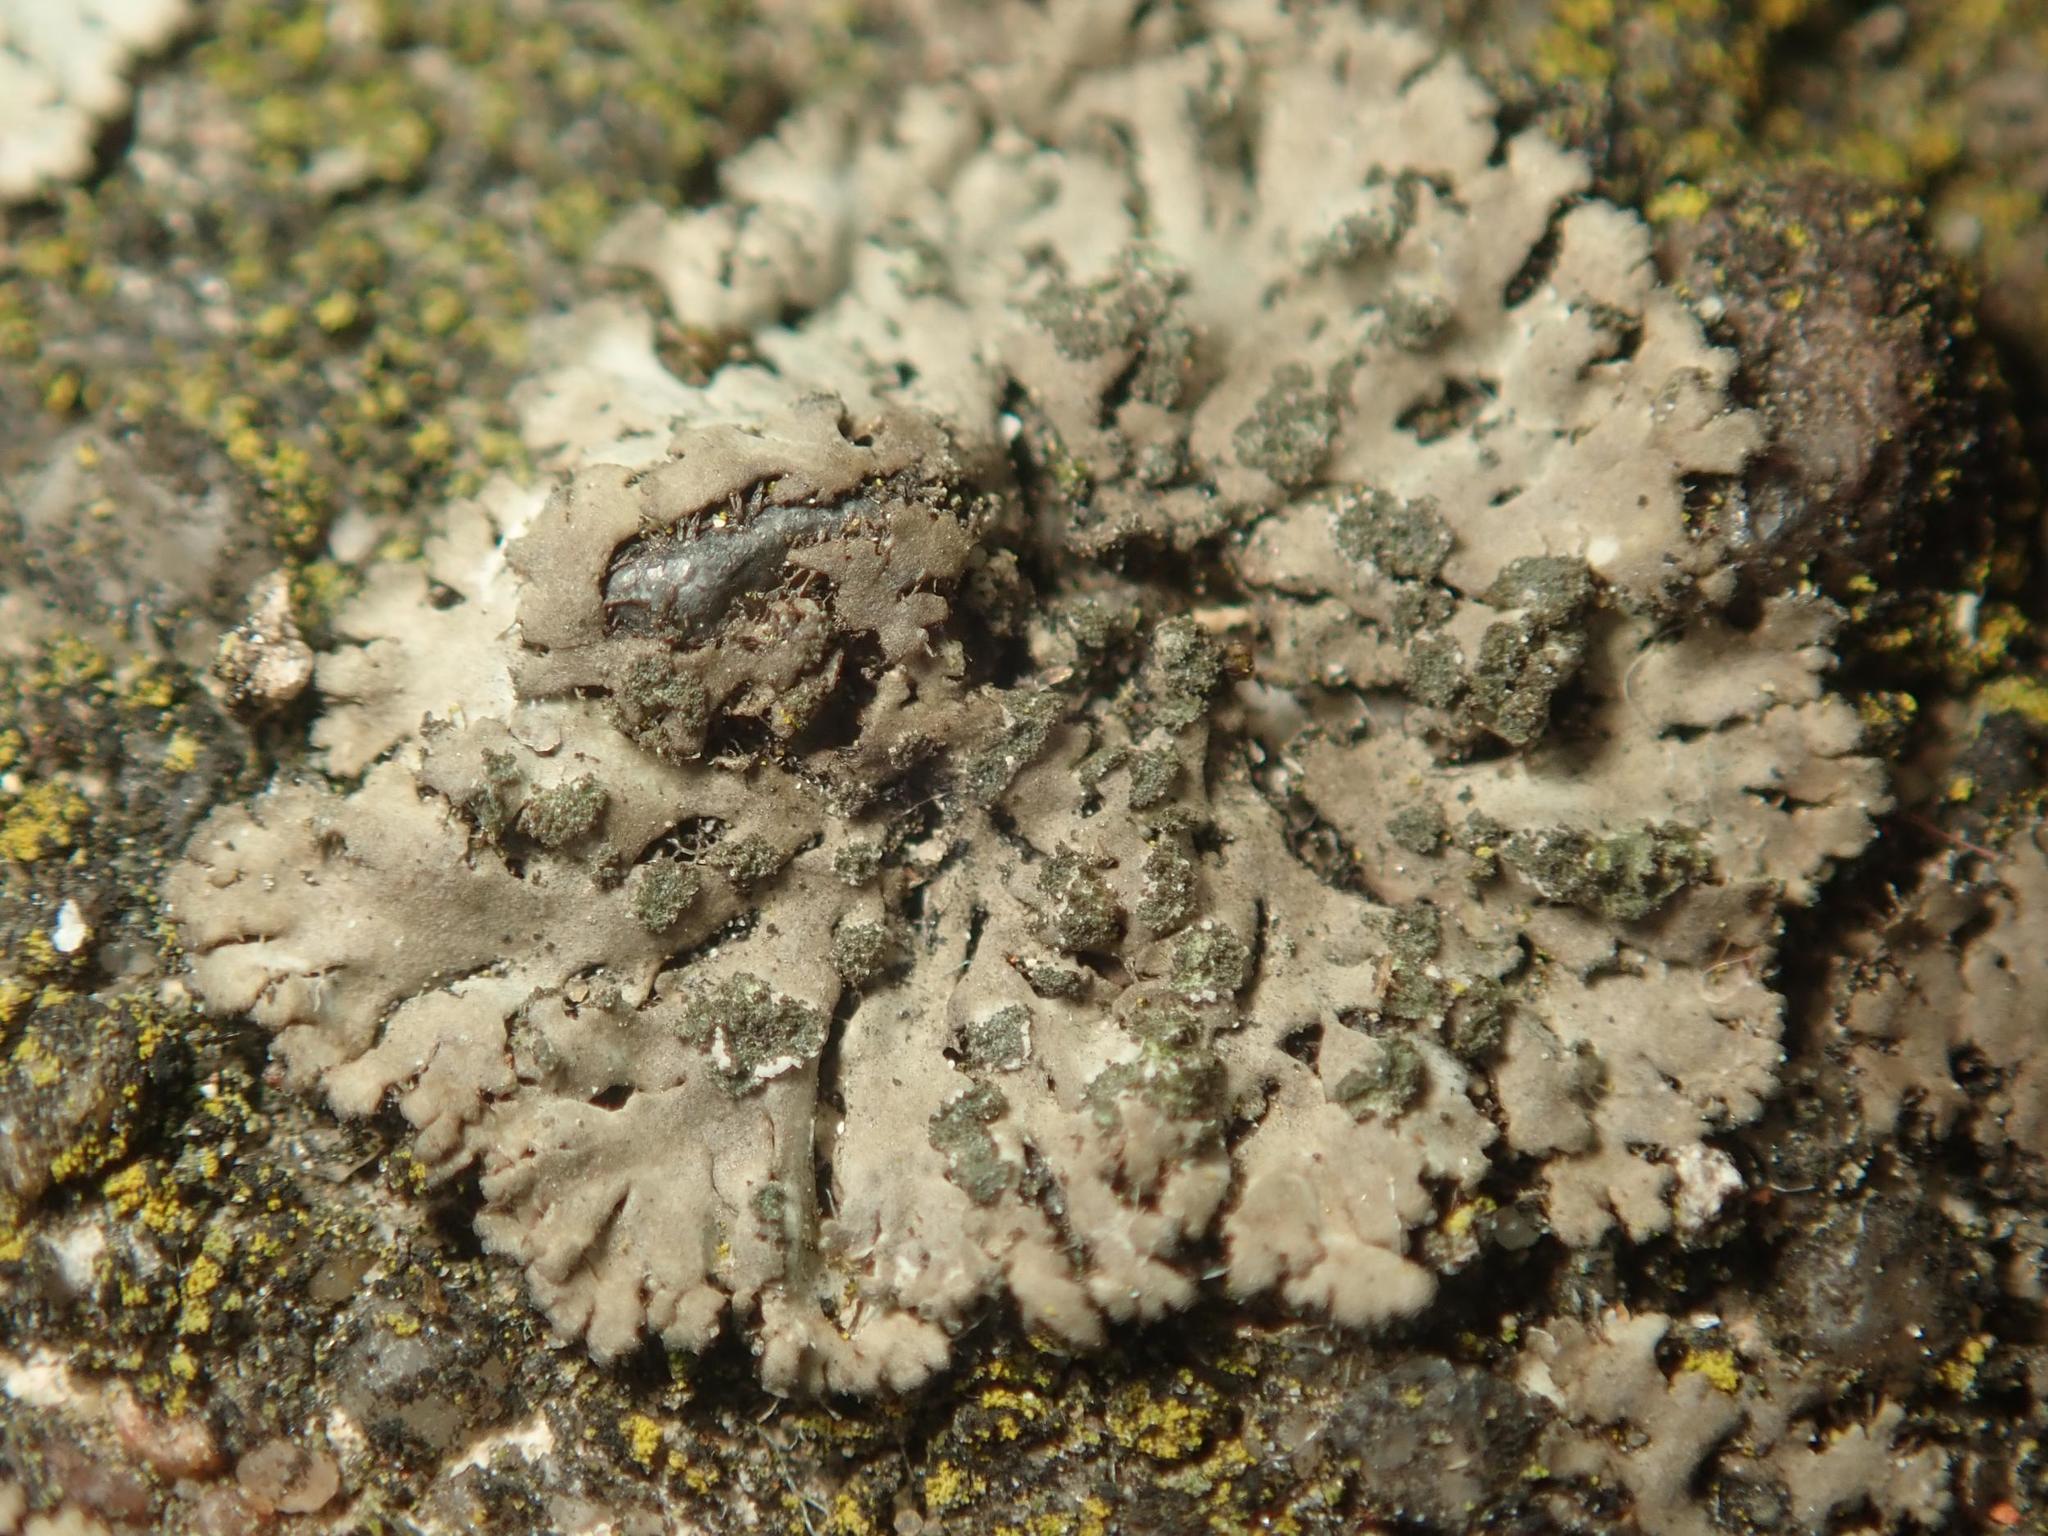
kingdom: Fungi
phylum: Ascomycota
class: Lecanoromycetes
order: Caliciales
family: Physciaceae
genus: Phaeophyscia
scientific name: Phaeophyscia orbicularis
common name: Mealy shadow lichen
